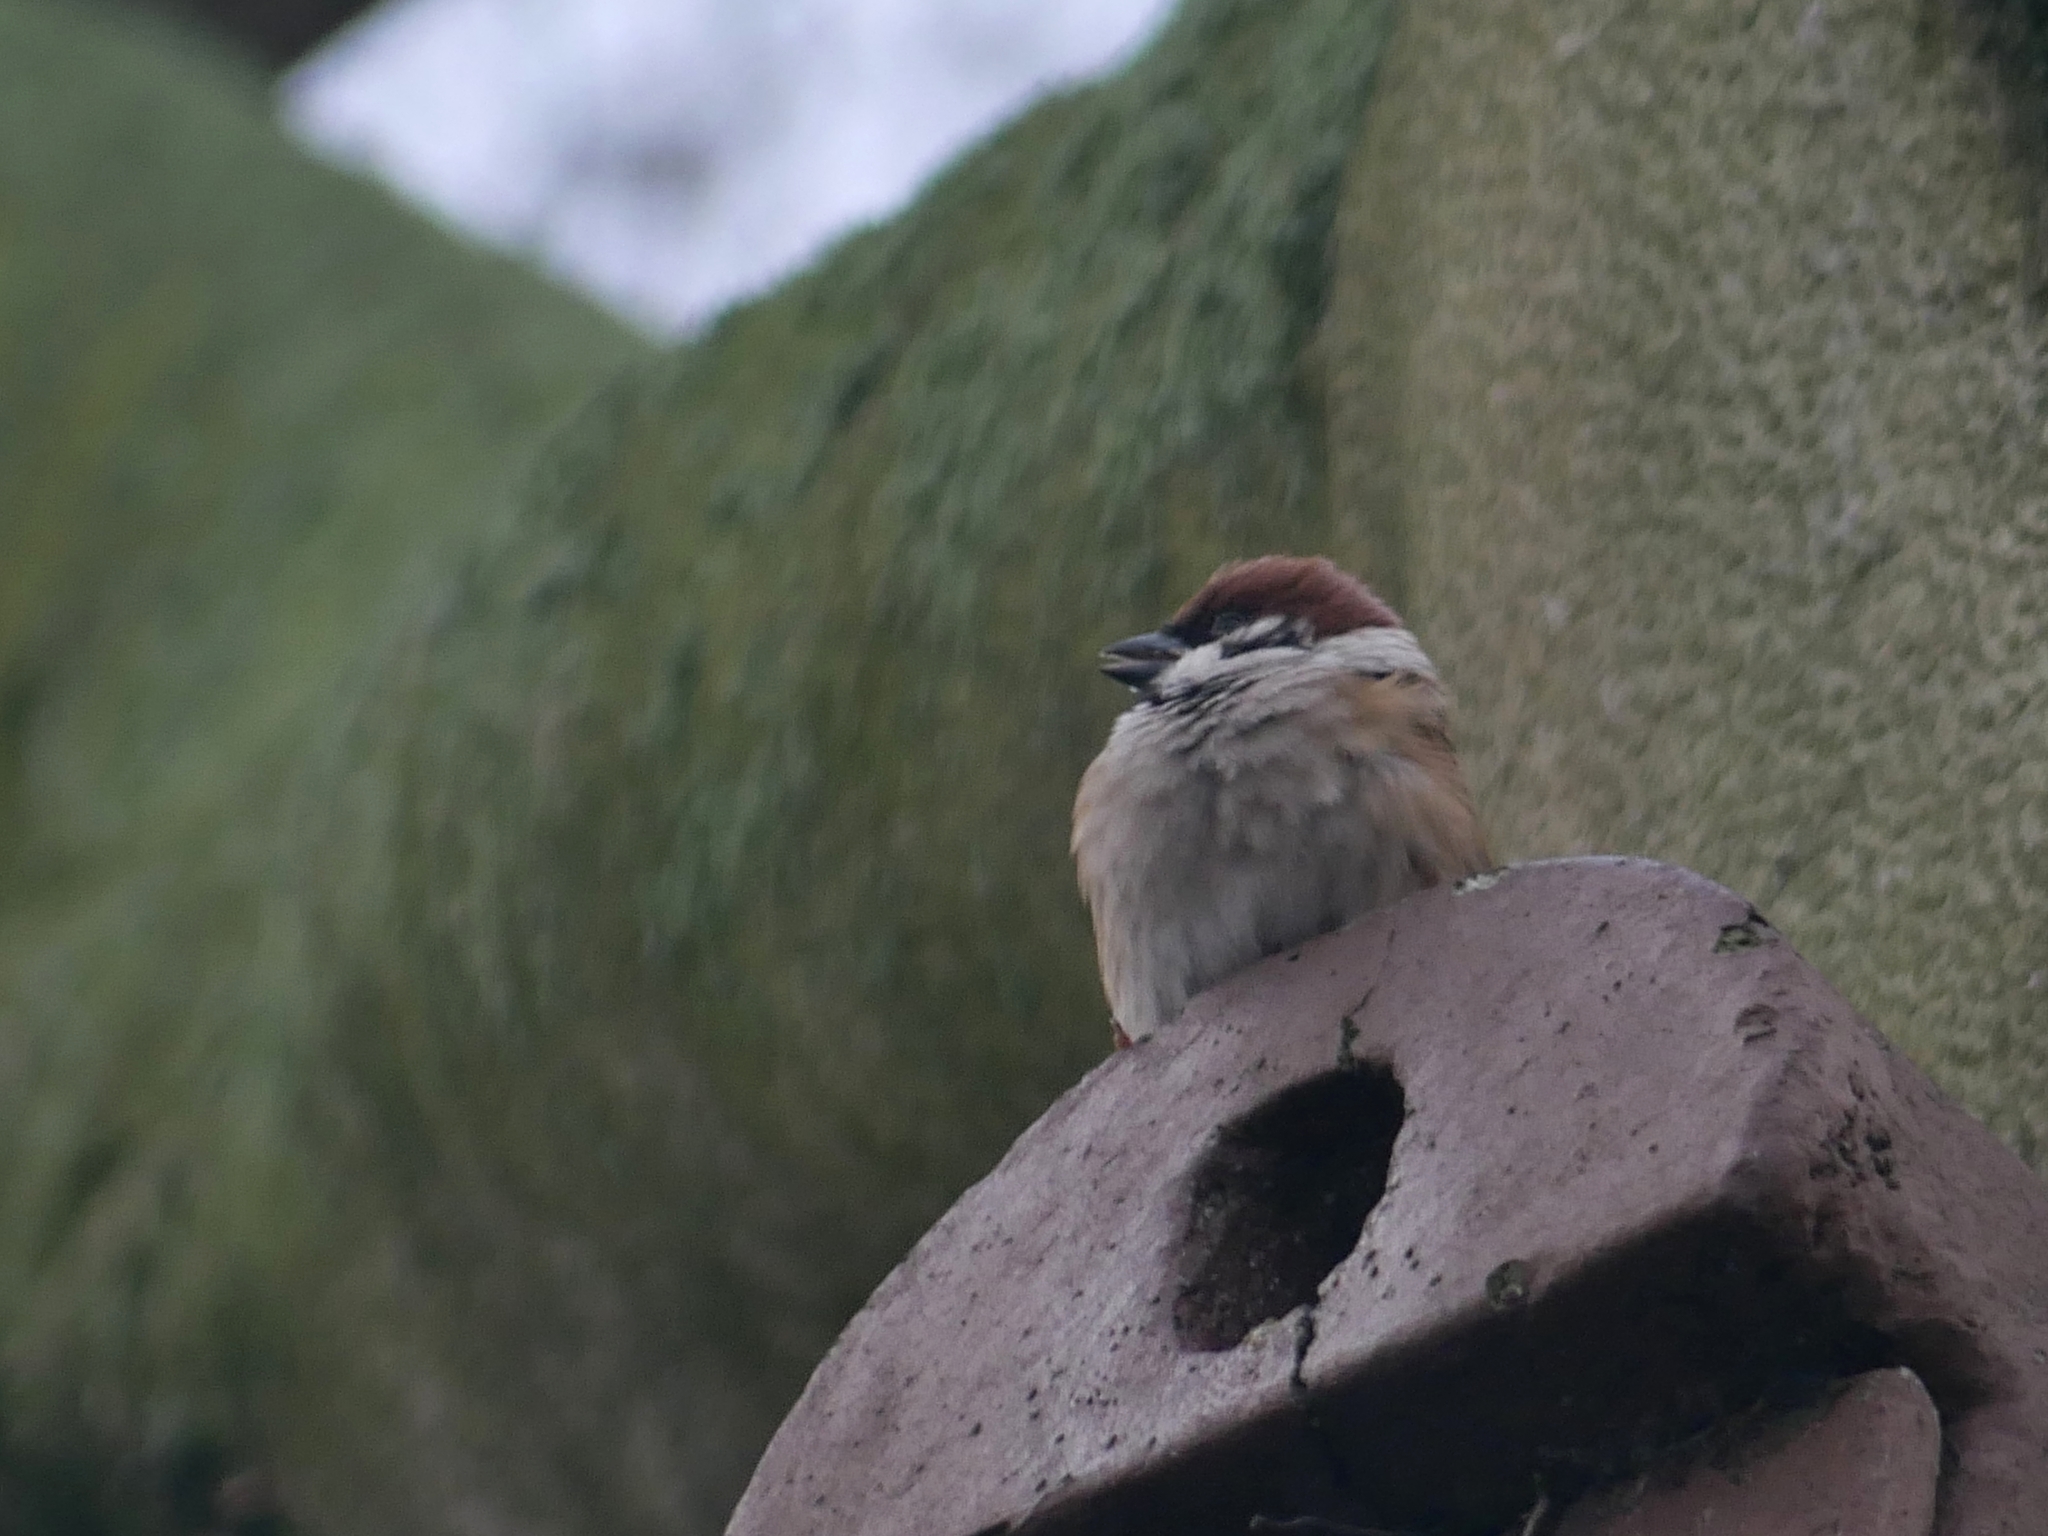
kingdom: Animalia
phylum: Chordata
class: Aves
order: Passeriformes
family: Passeridae
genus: Passer
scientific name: Passer montanus
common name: Eurasian tree sparrow
